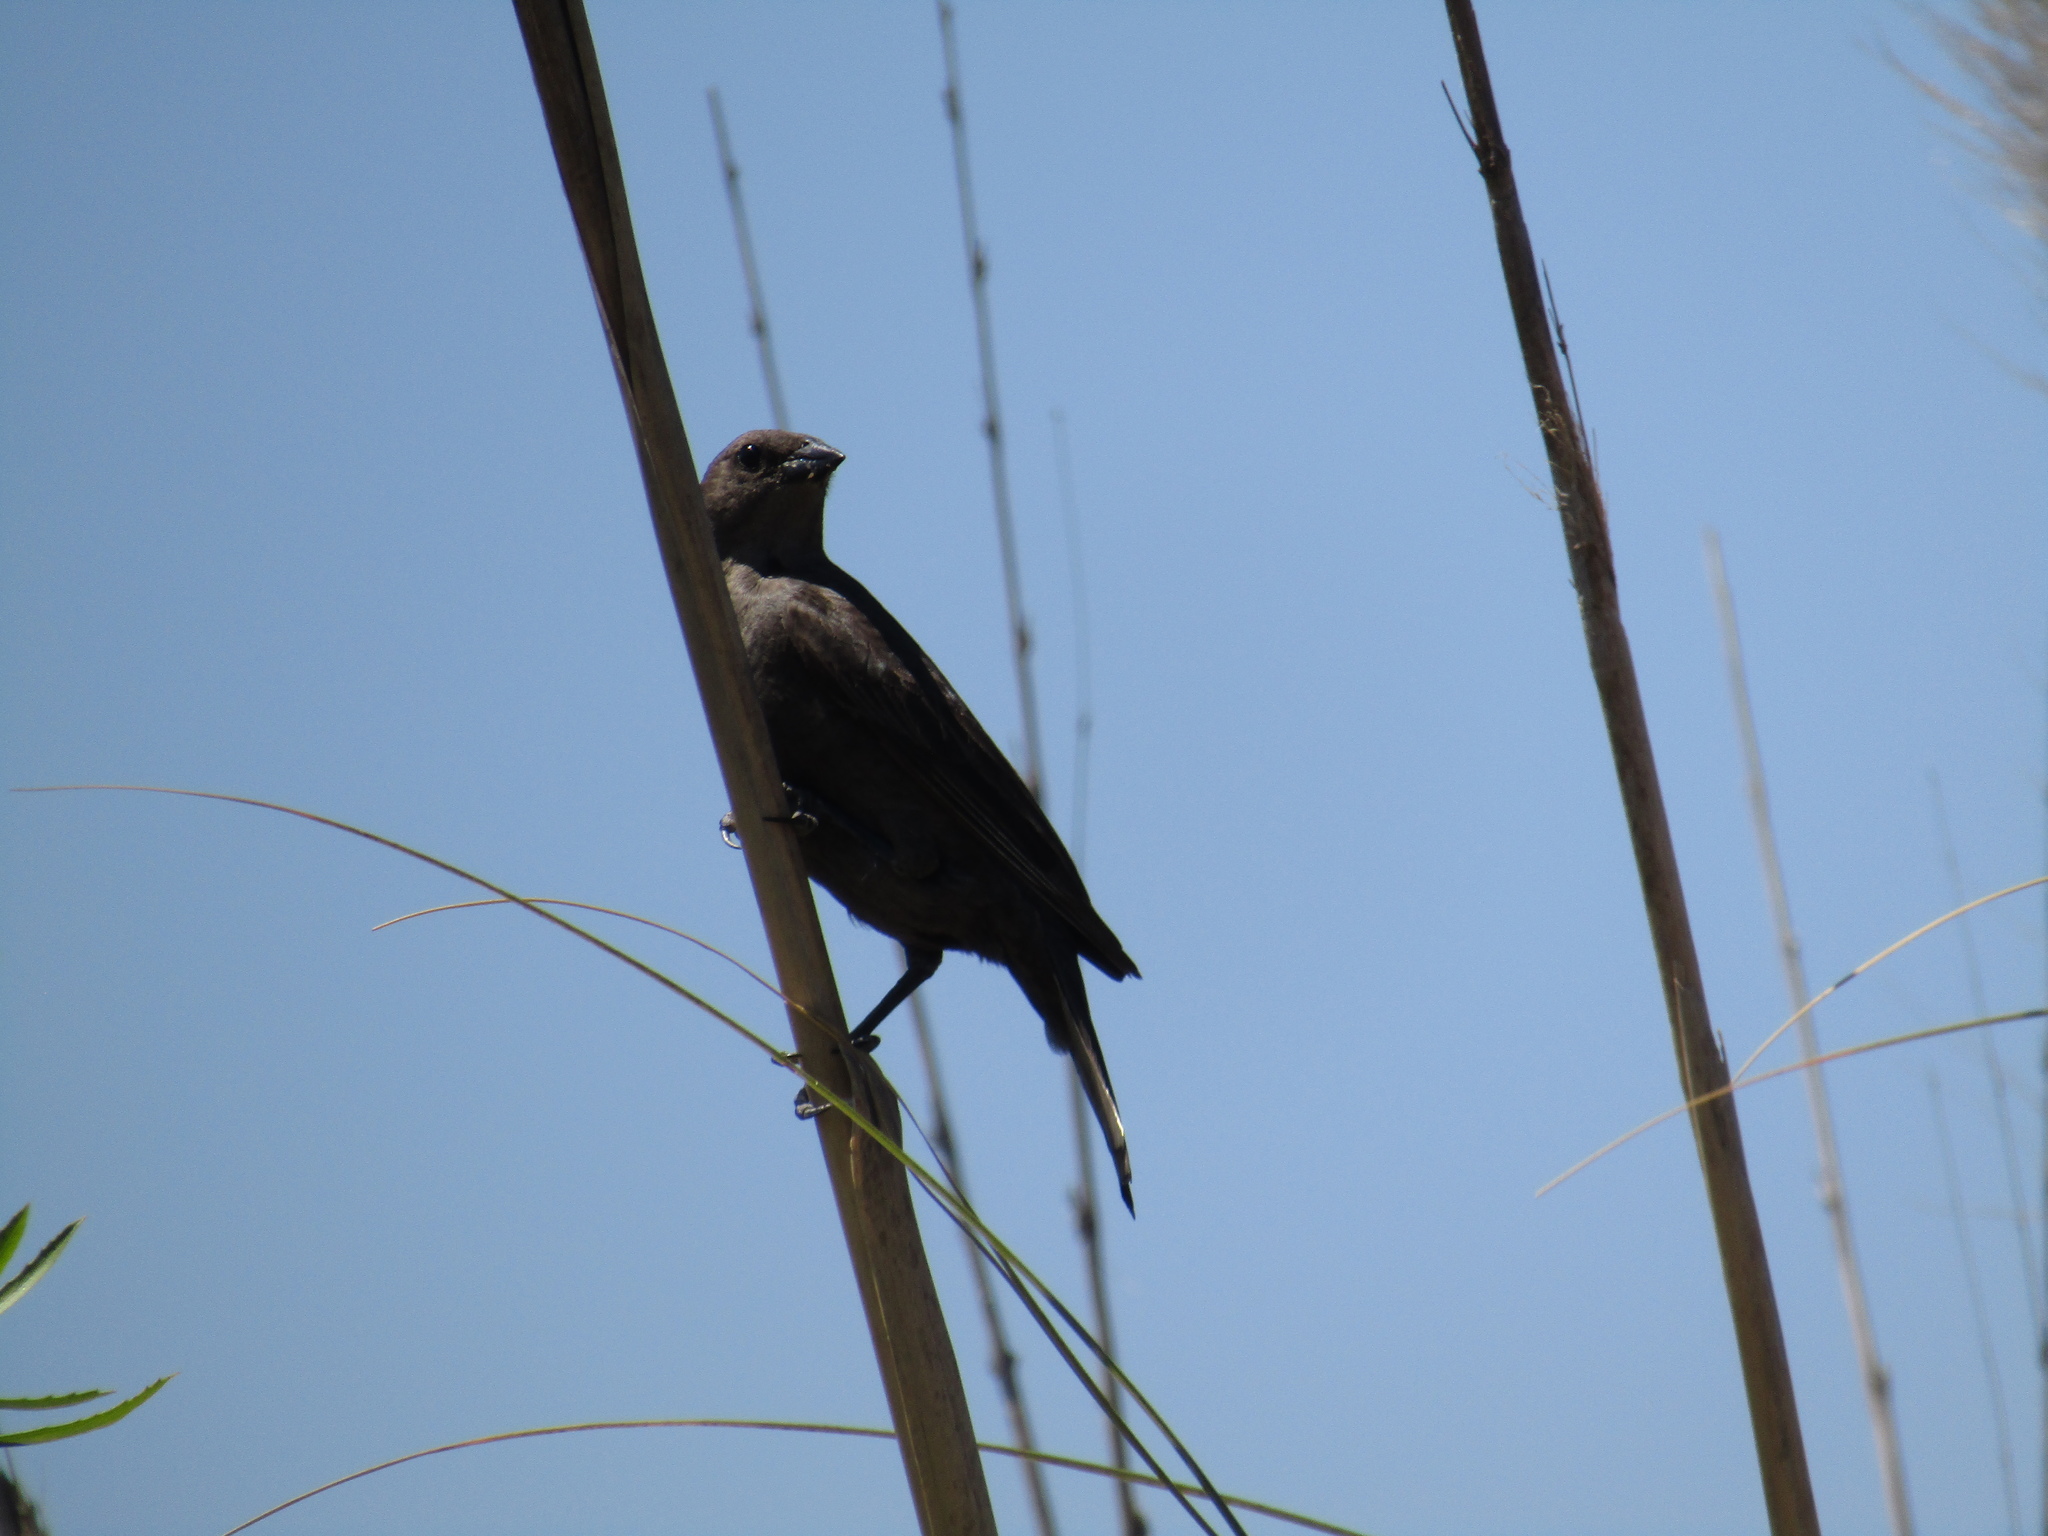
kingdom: Animalia
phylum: Chordata
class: Aves
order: Passeriformes
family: Icteridae
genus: Molothrus
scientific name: Molothrus bonariensis
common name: Shiny cowbird
